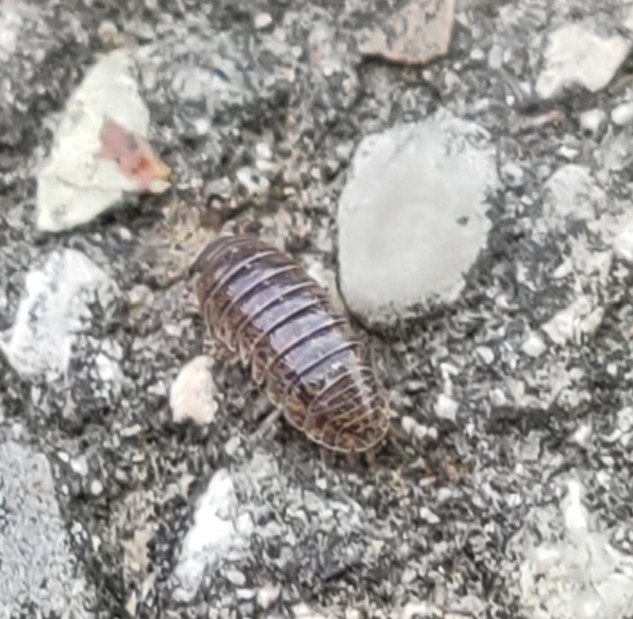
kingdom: Animalia
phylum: Arthropoda
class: Malacostraca
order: Isopoda
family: Armadillidiidae
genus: Armadillidium
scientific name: Armadillidium arcangelii
